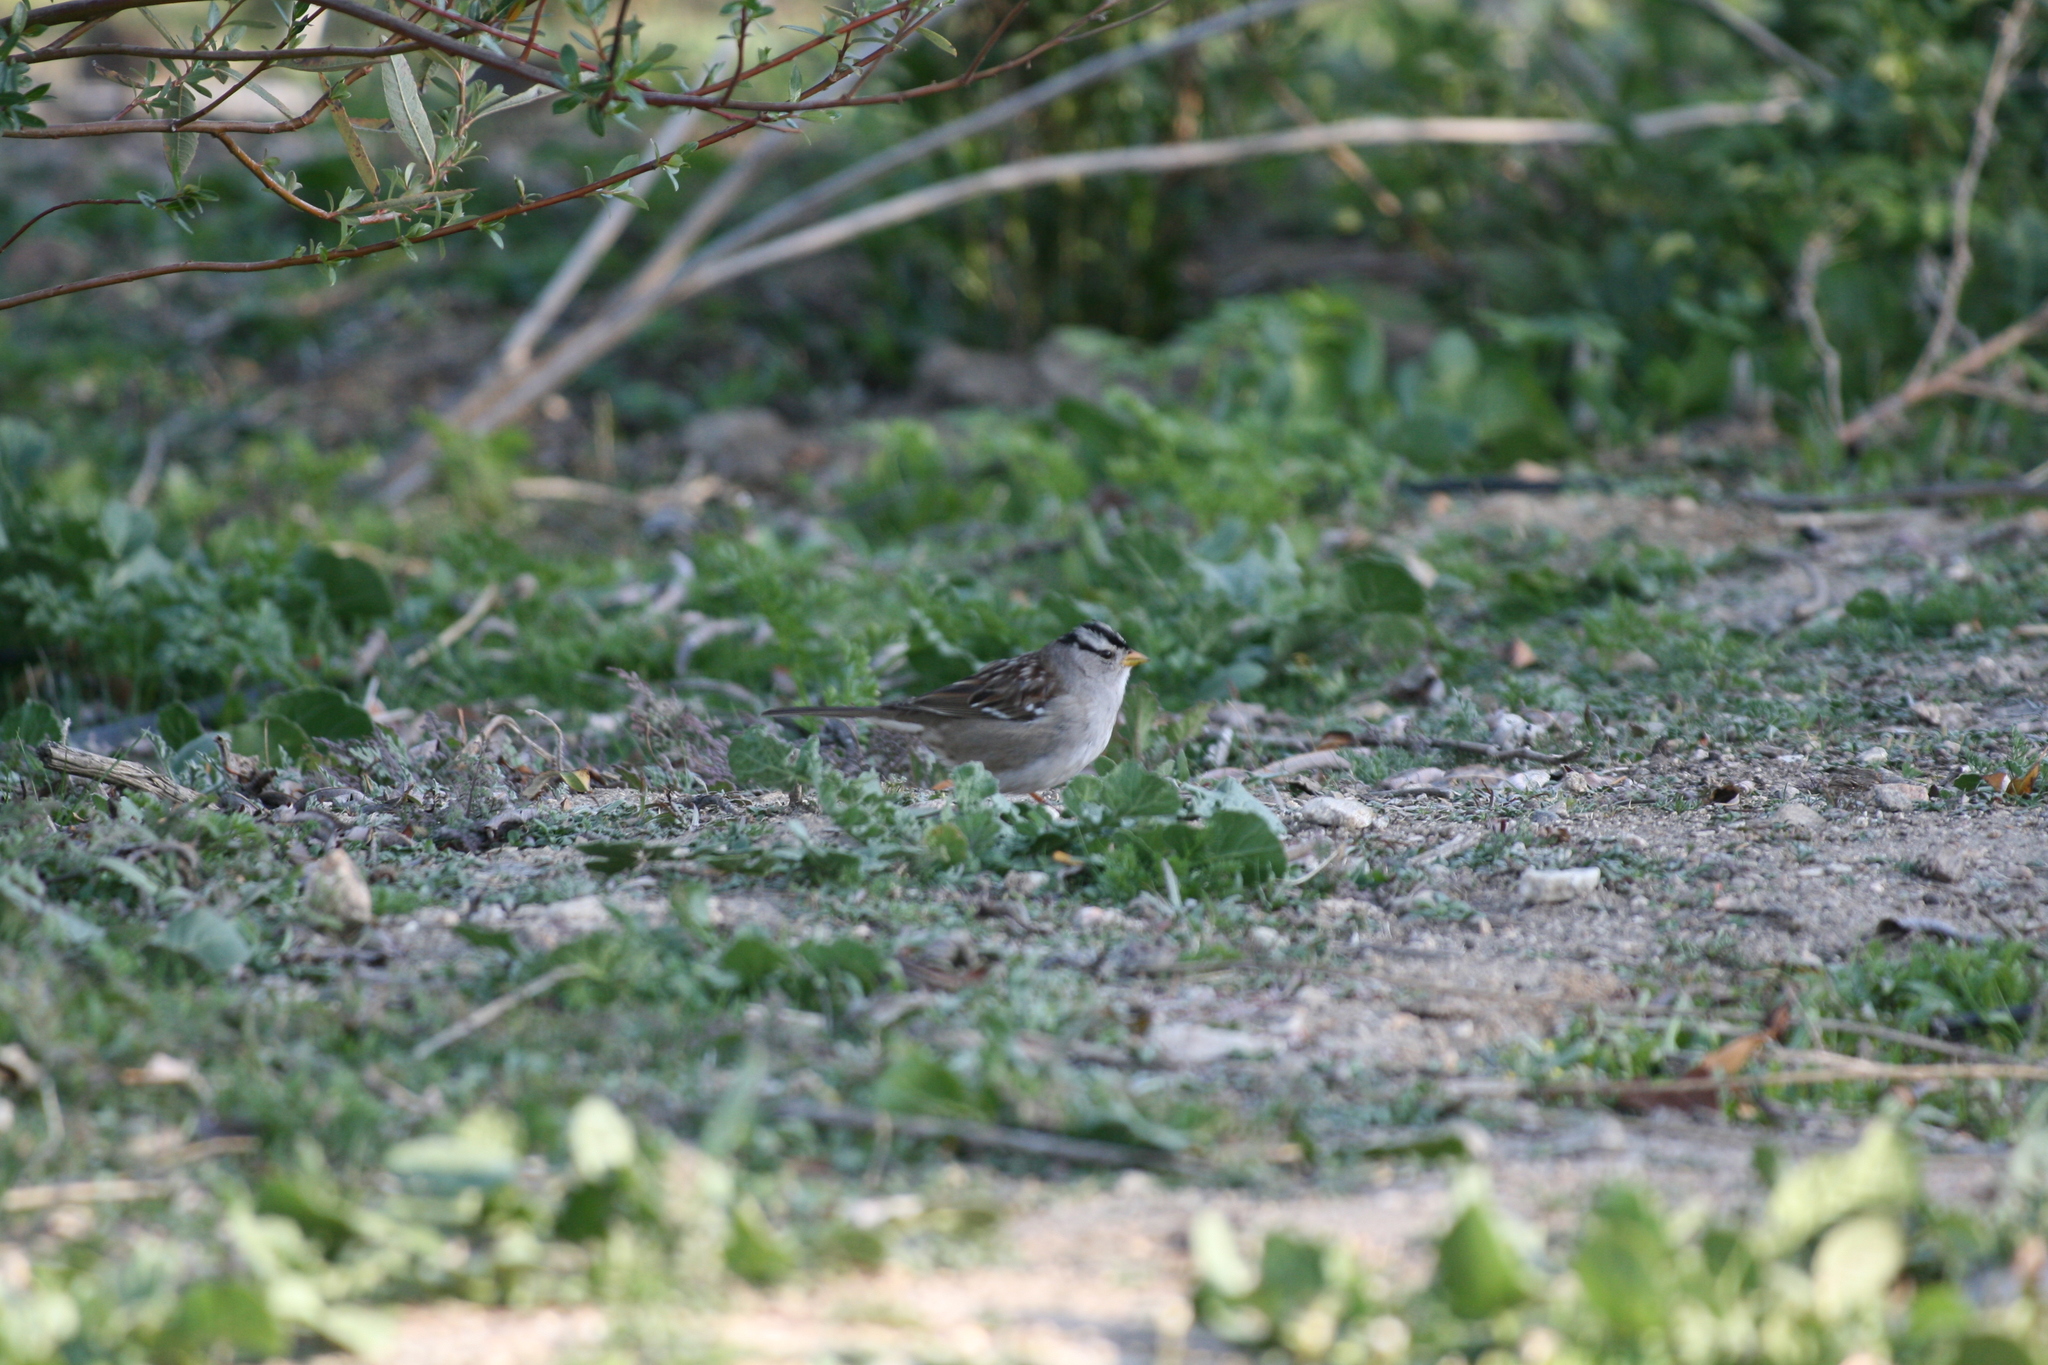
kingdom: Animalia
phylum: Chordata
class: Aves
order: Passeriformes
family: Passerellidae
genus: Zonotrichia
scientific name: Zonotrichia leucophrys
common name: White-crowned sparrow
